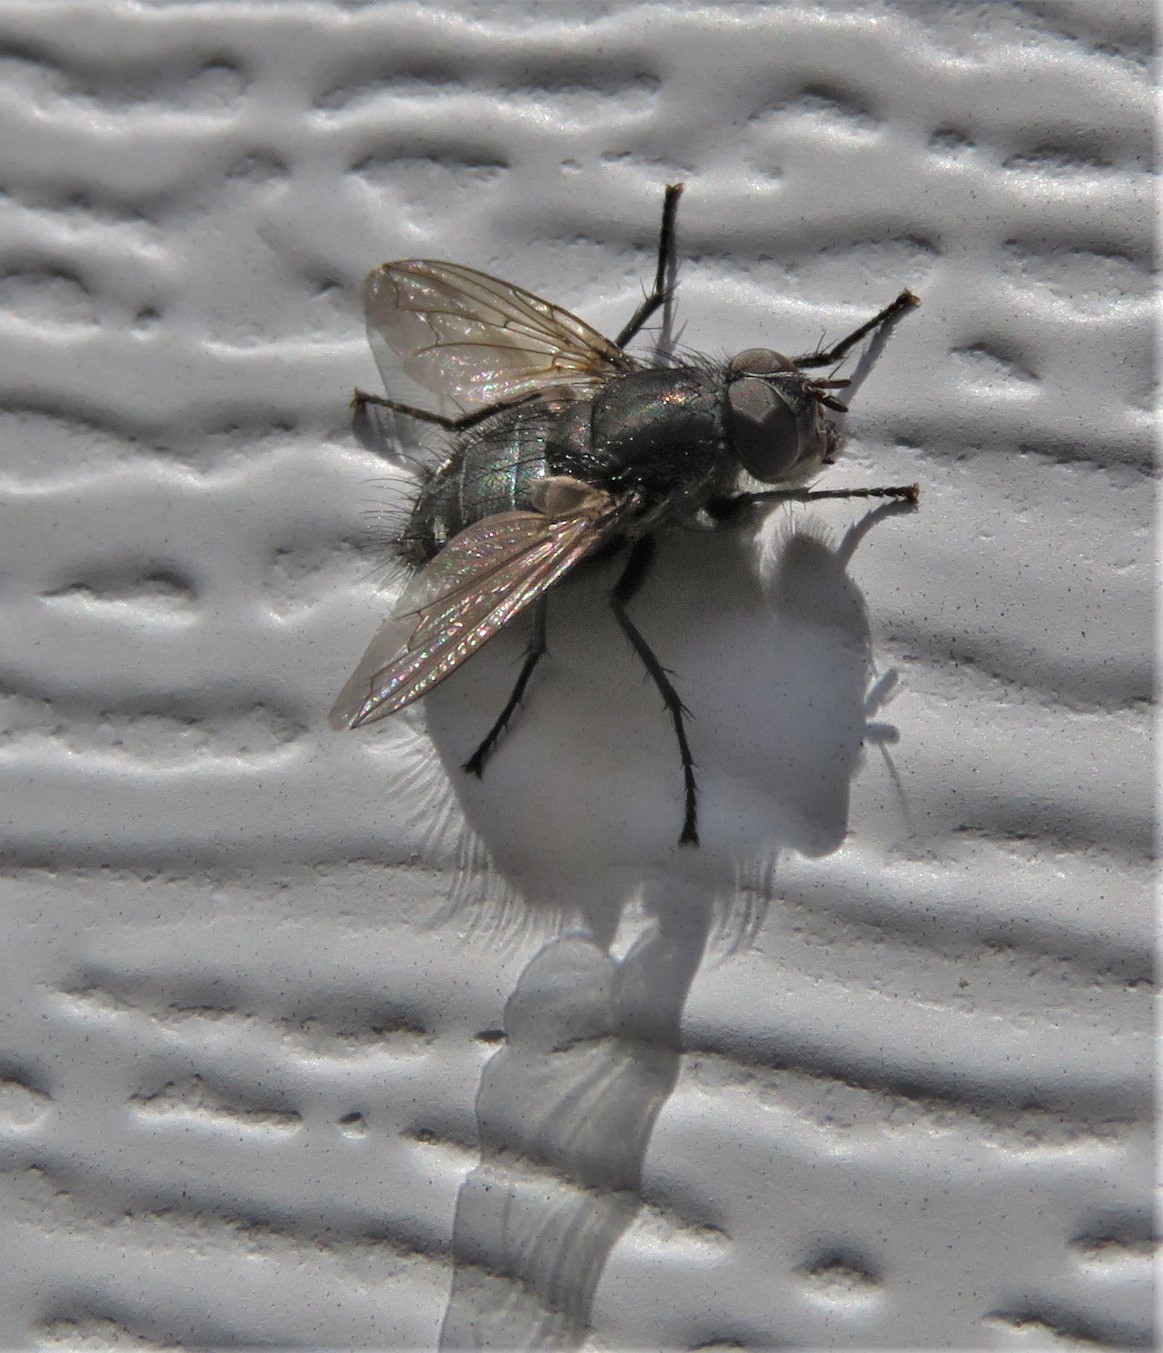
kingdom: Animalia
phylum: Arthropoda
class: Insecta
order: Diptera
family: Polleniidae
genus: Pollenia
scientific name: Pollenia
